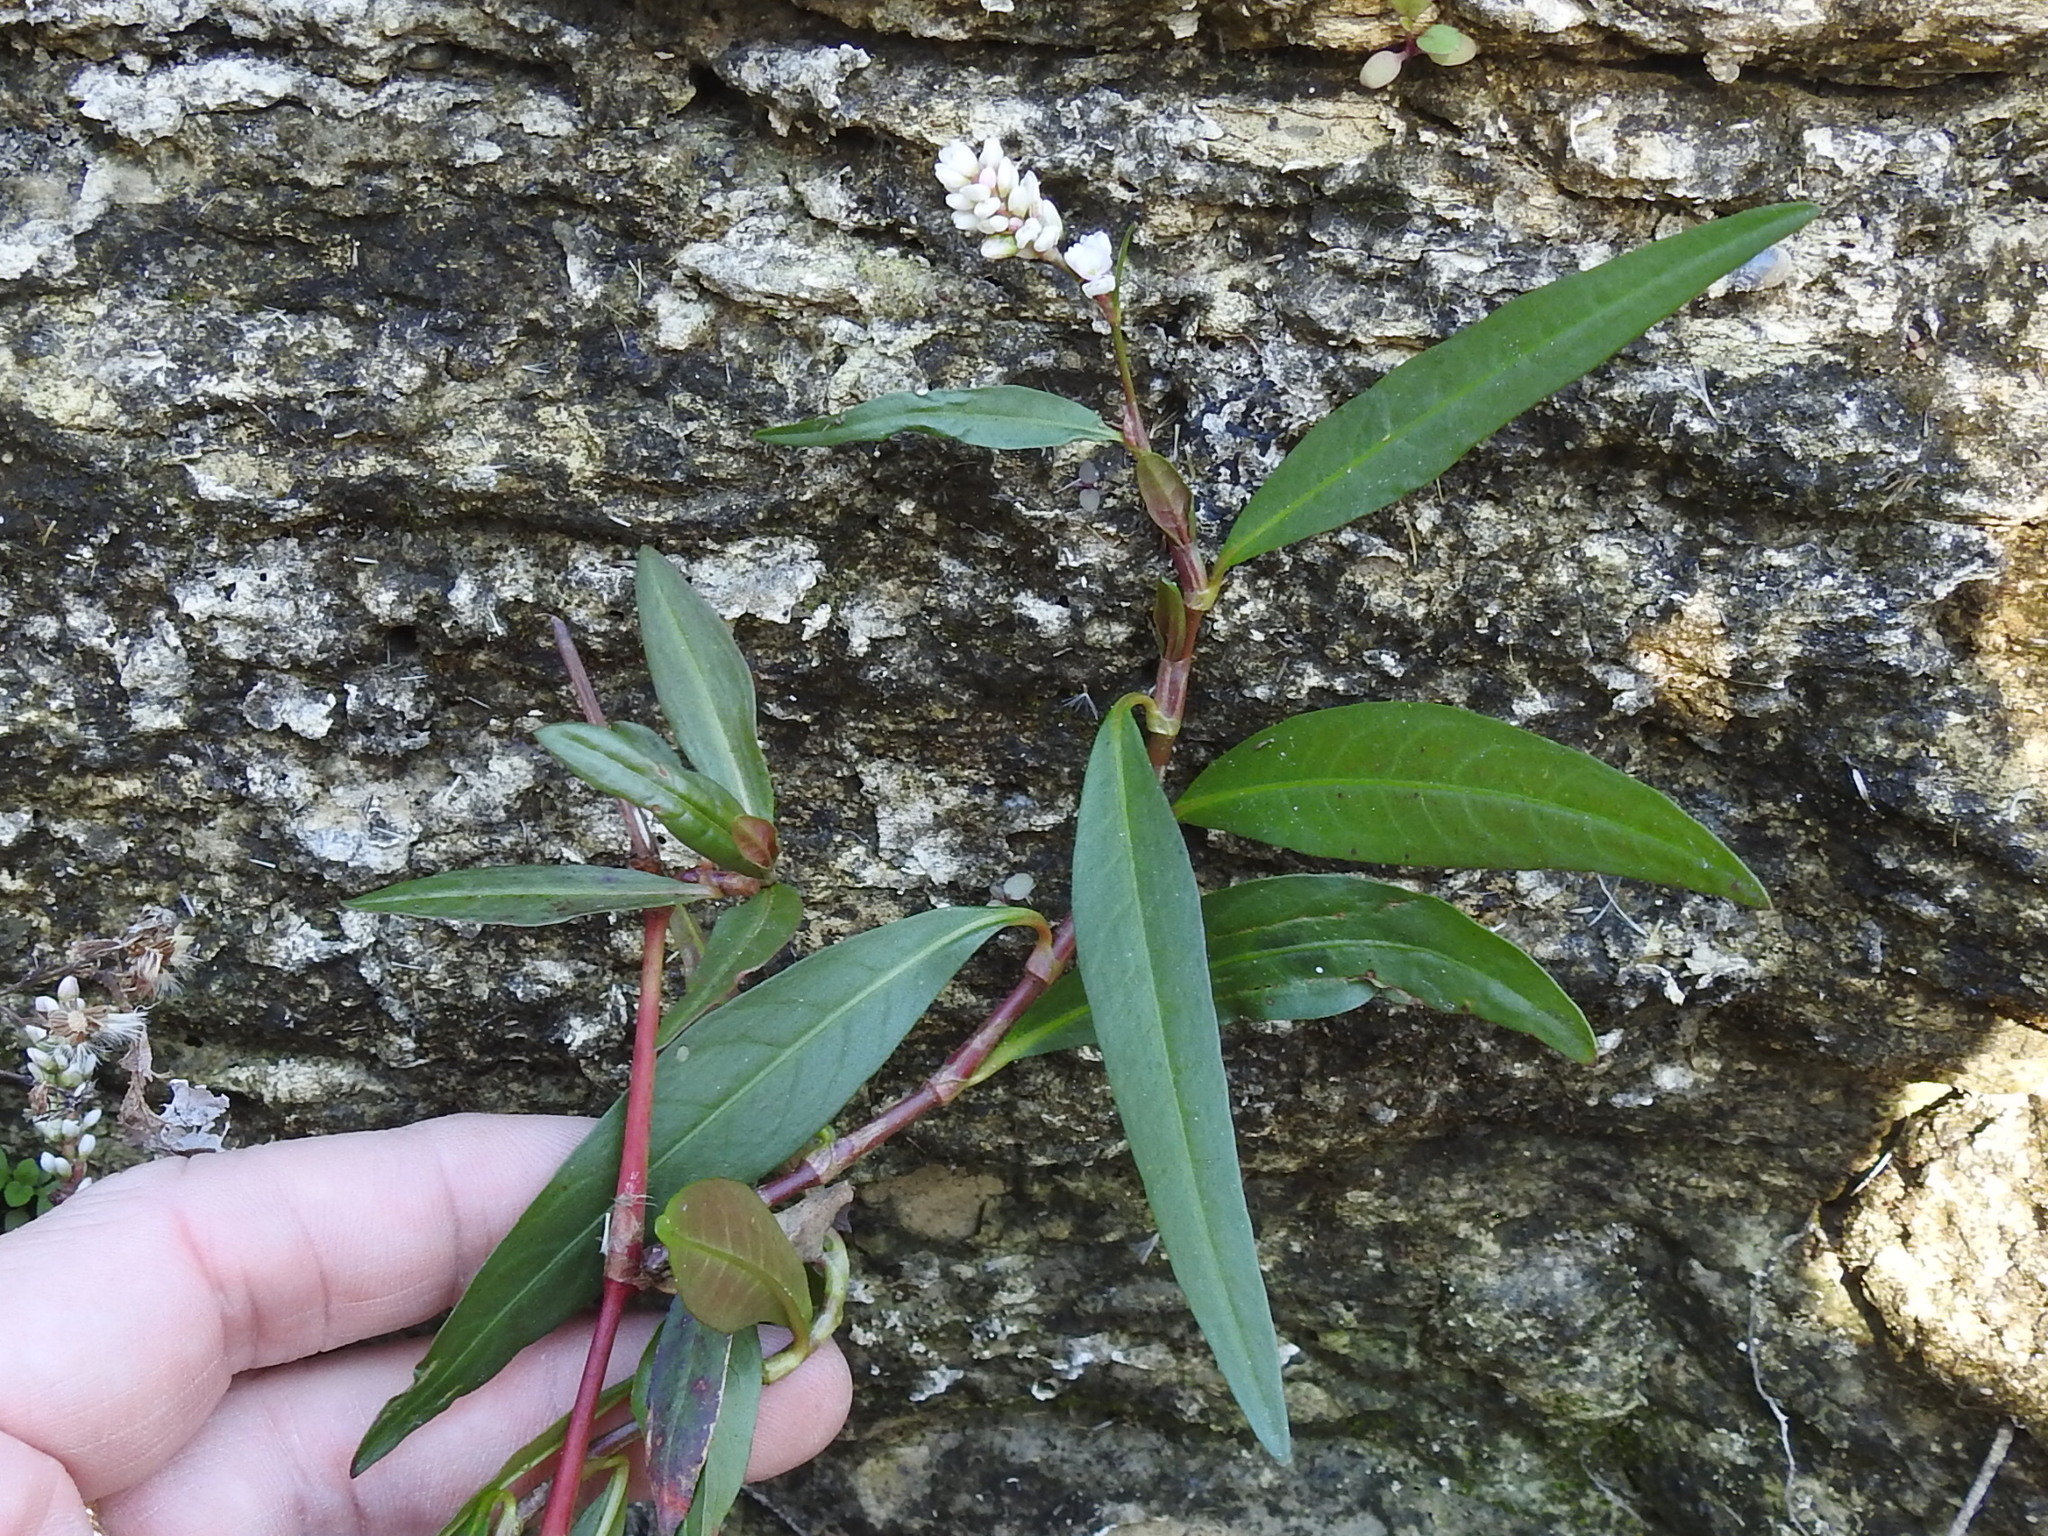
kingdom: Plantae
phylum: Tracheophyta
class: Magnoliopsida
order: Caryophyllales
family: Polygonaceae
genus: Persicaria
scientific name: Persicaria minor
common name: Small water-pepper
